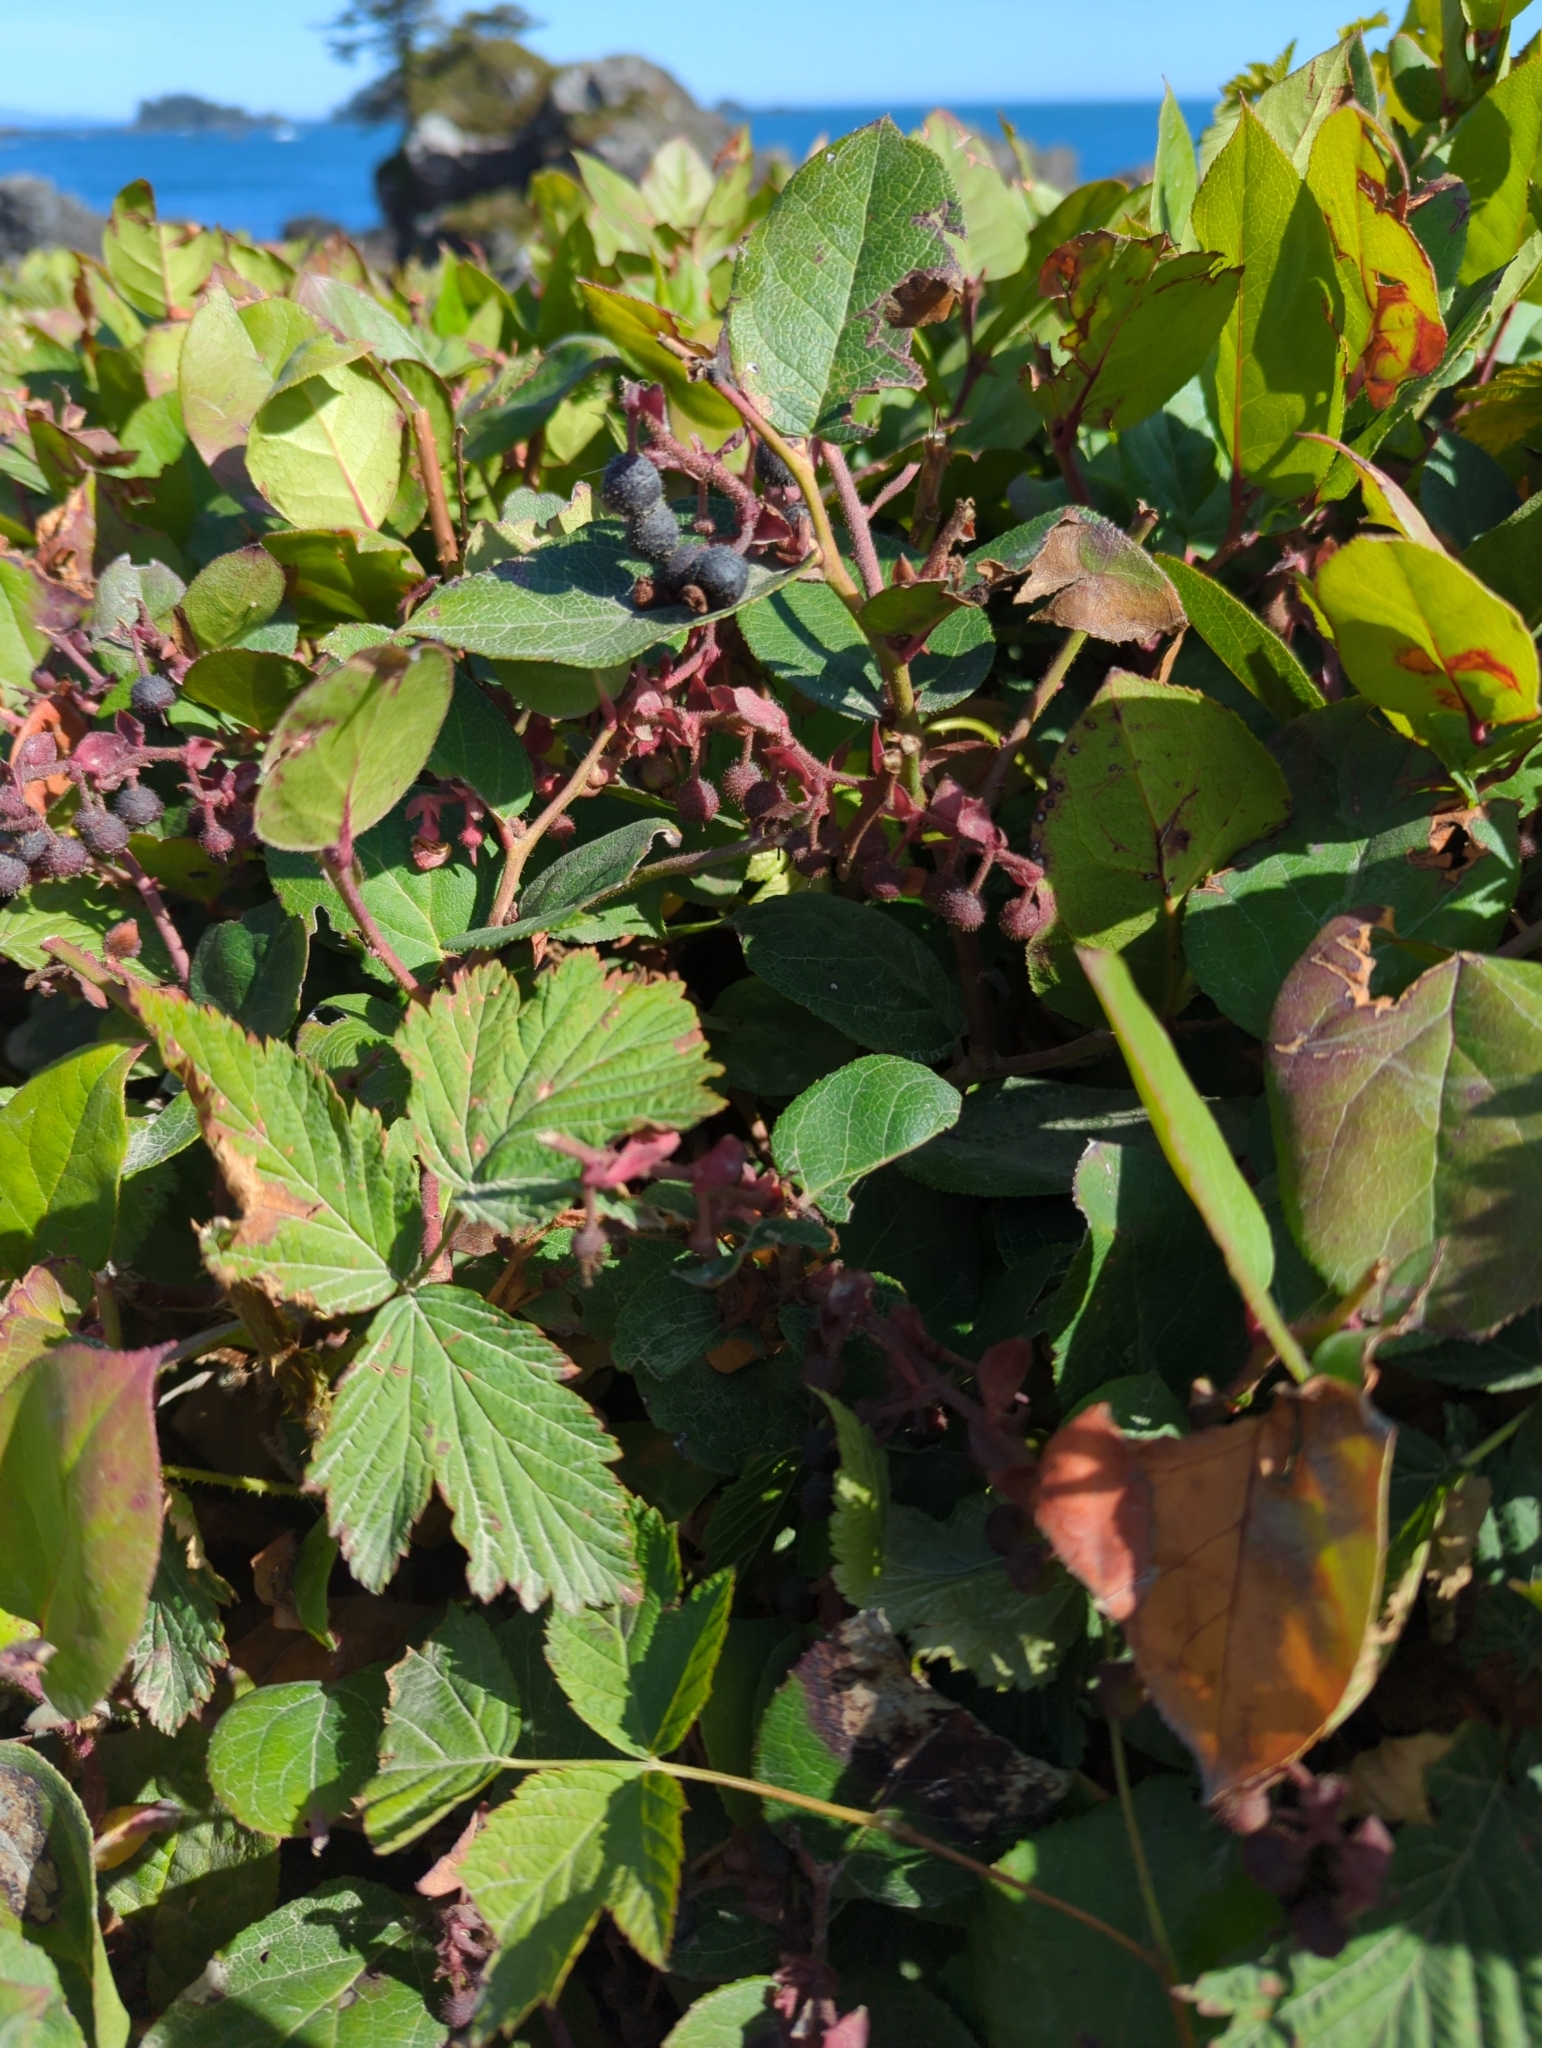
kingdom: Plantae
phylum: Tracheophyta
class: Magnoliopsida
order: Ericales
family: Ericaceae
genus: Gaultheria
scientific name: Gaultheria shallon
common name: Shallon
